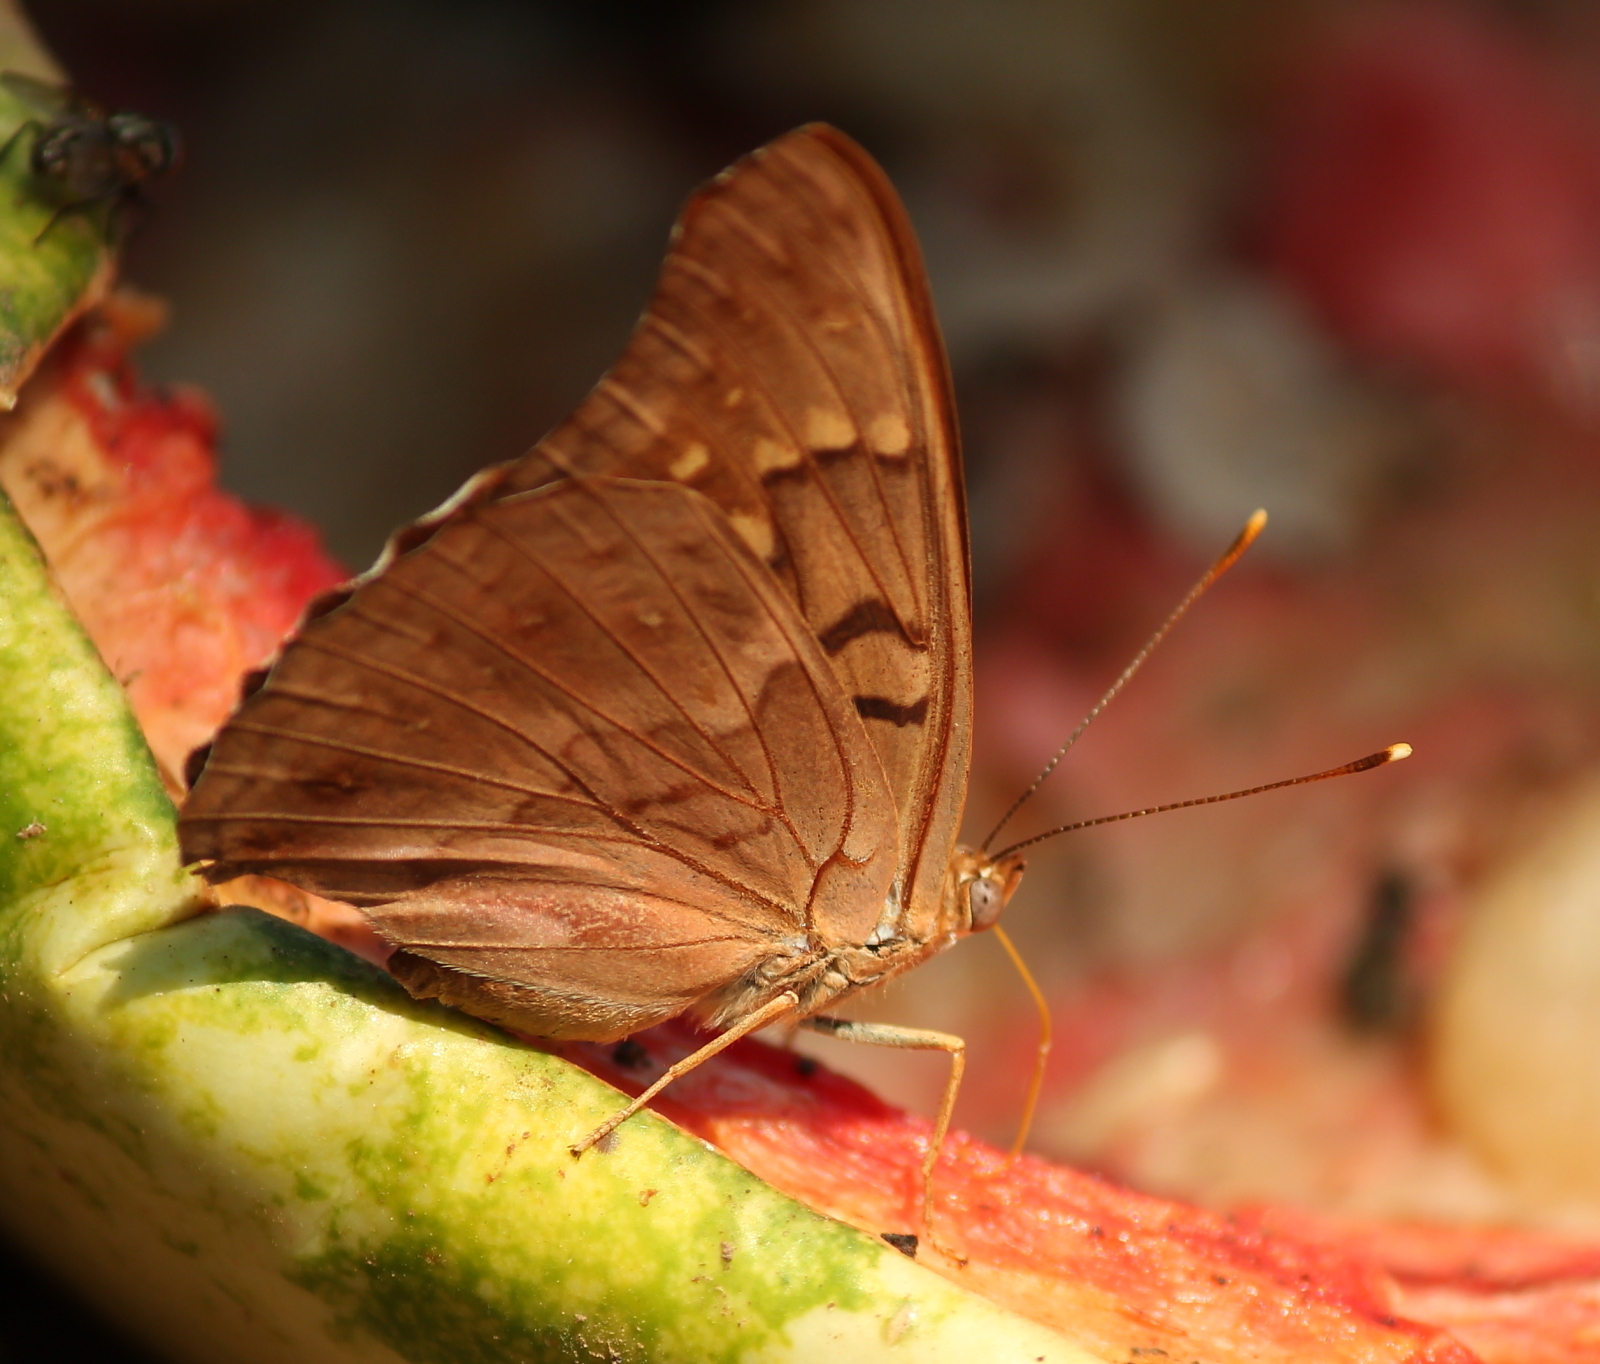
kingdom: Animalia
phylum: Arthropoda
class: Insecta
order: Lepidoptera
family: Nymphalidae
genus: Asterocampa
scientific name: Asterocampa clyton
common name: Tawny emperor
